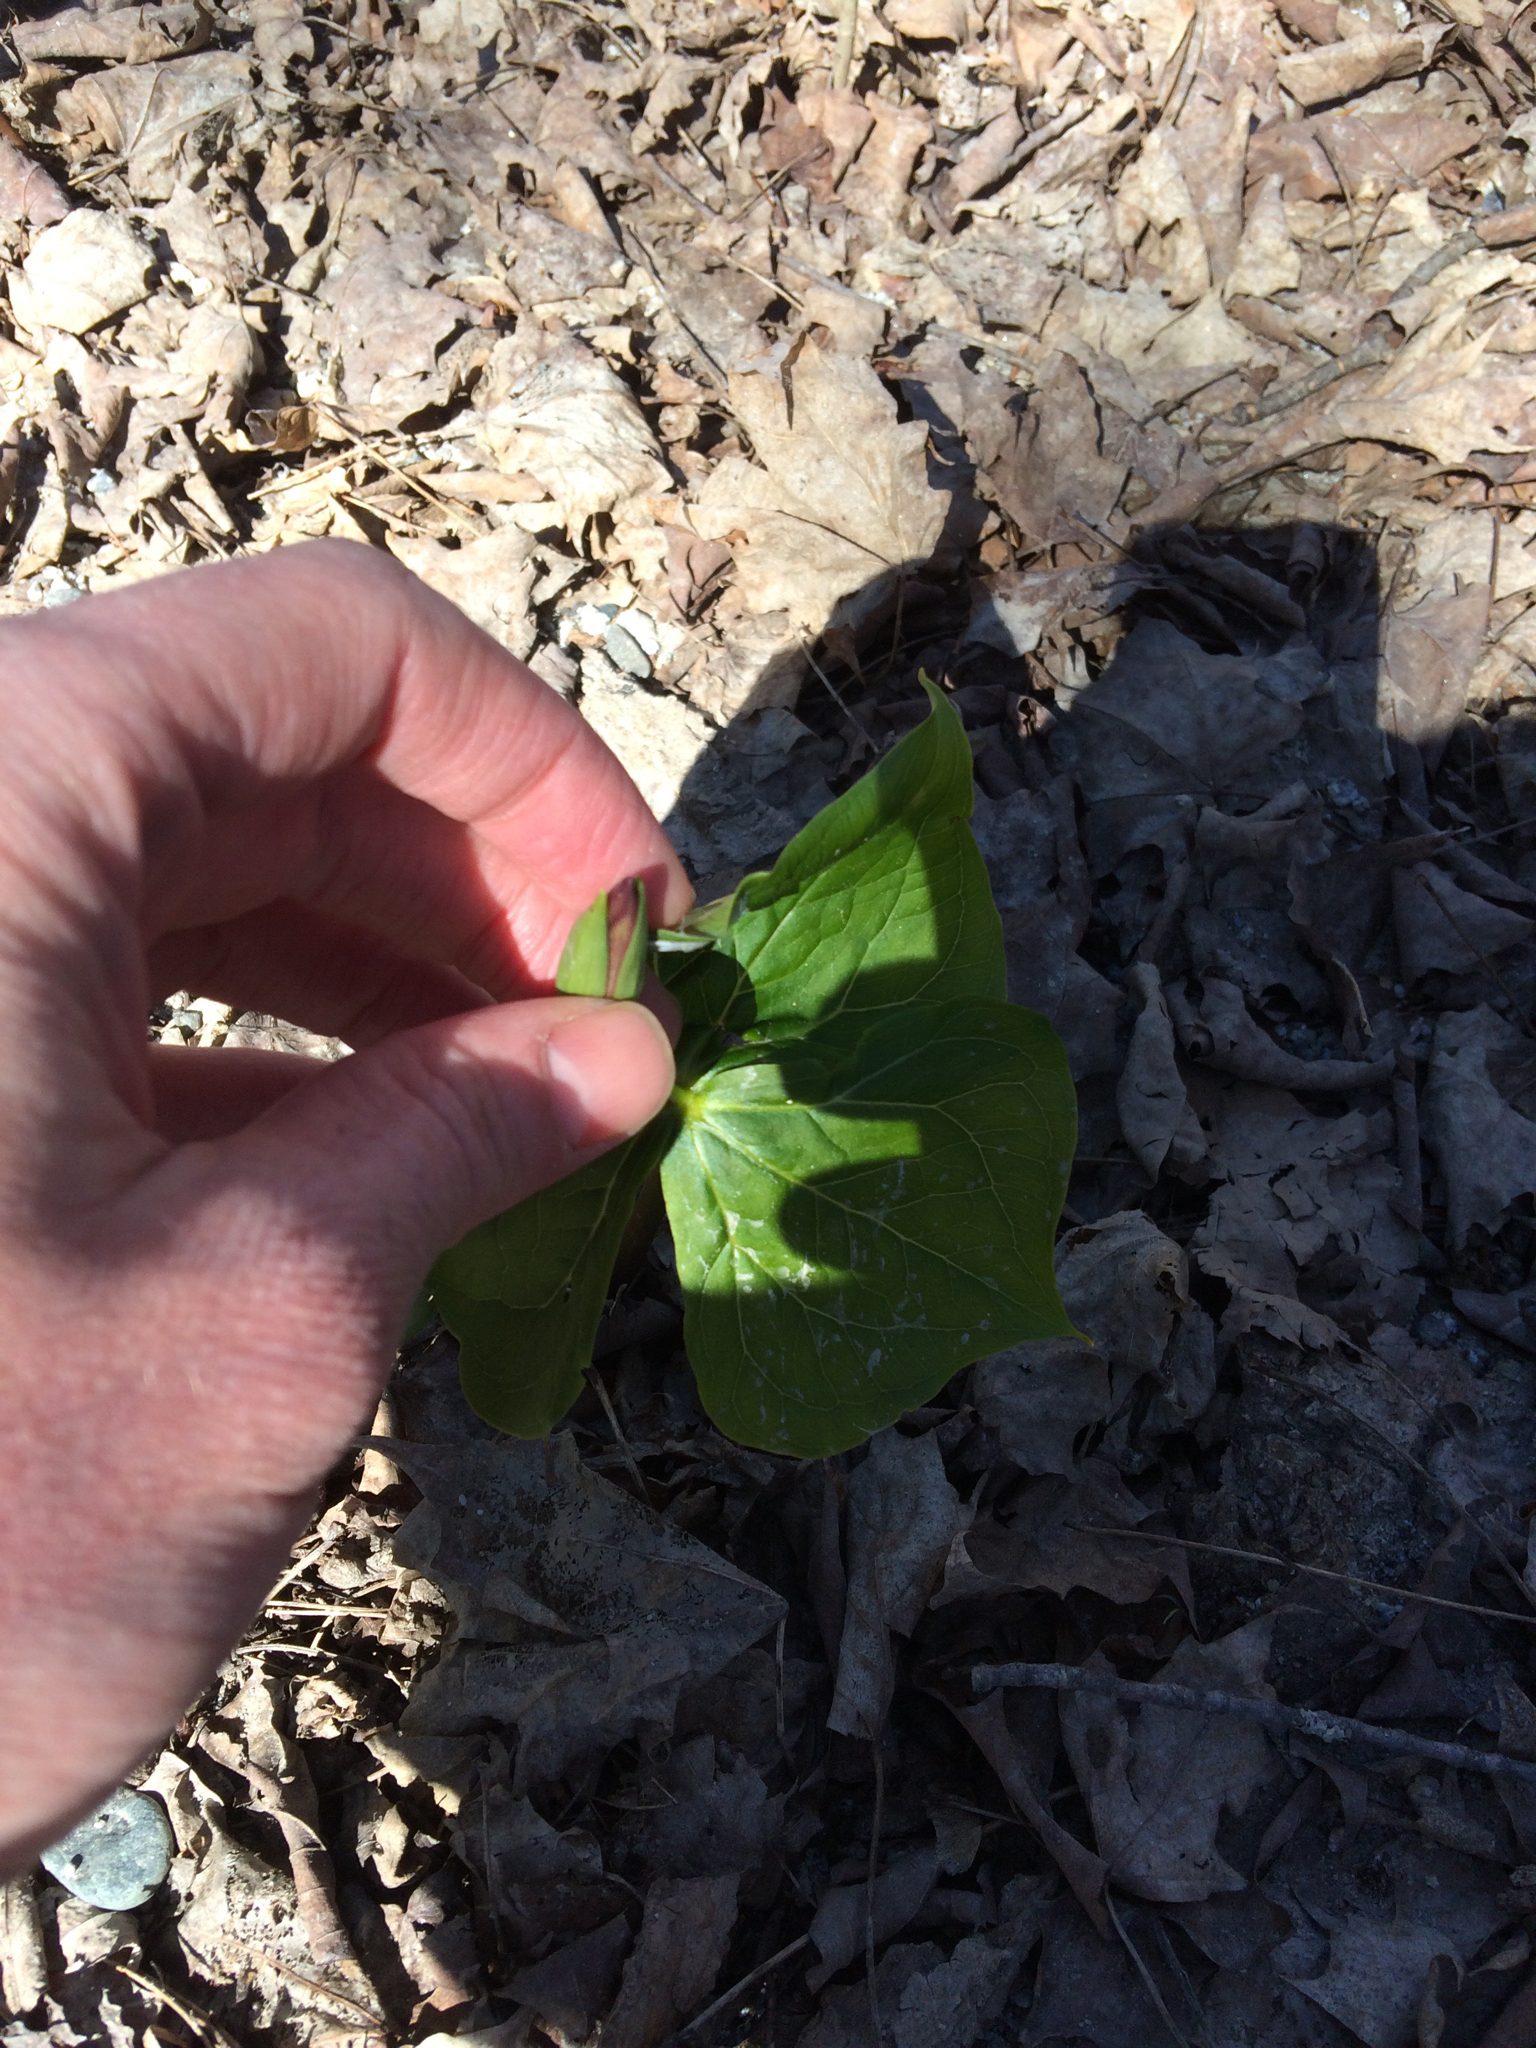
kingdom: Plantae
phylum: Tracheophyta
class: Liliopsida
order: Liliales
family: Melanthiaceae
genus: Trillium
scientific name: Trillium erectum
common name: Purple trillium
